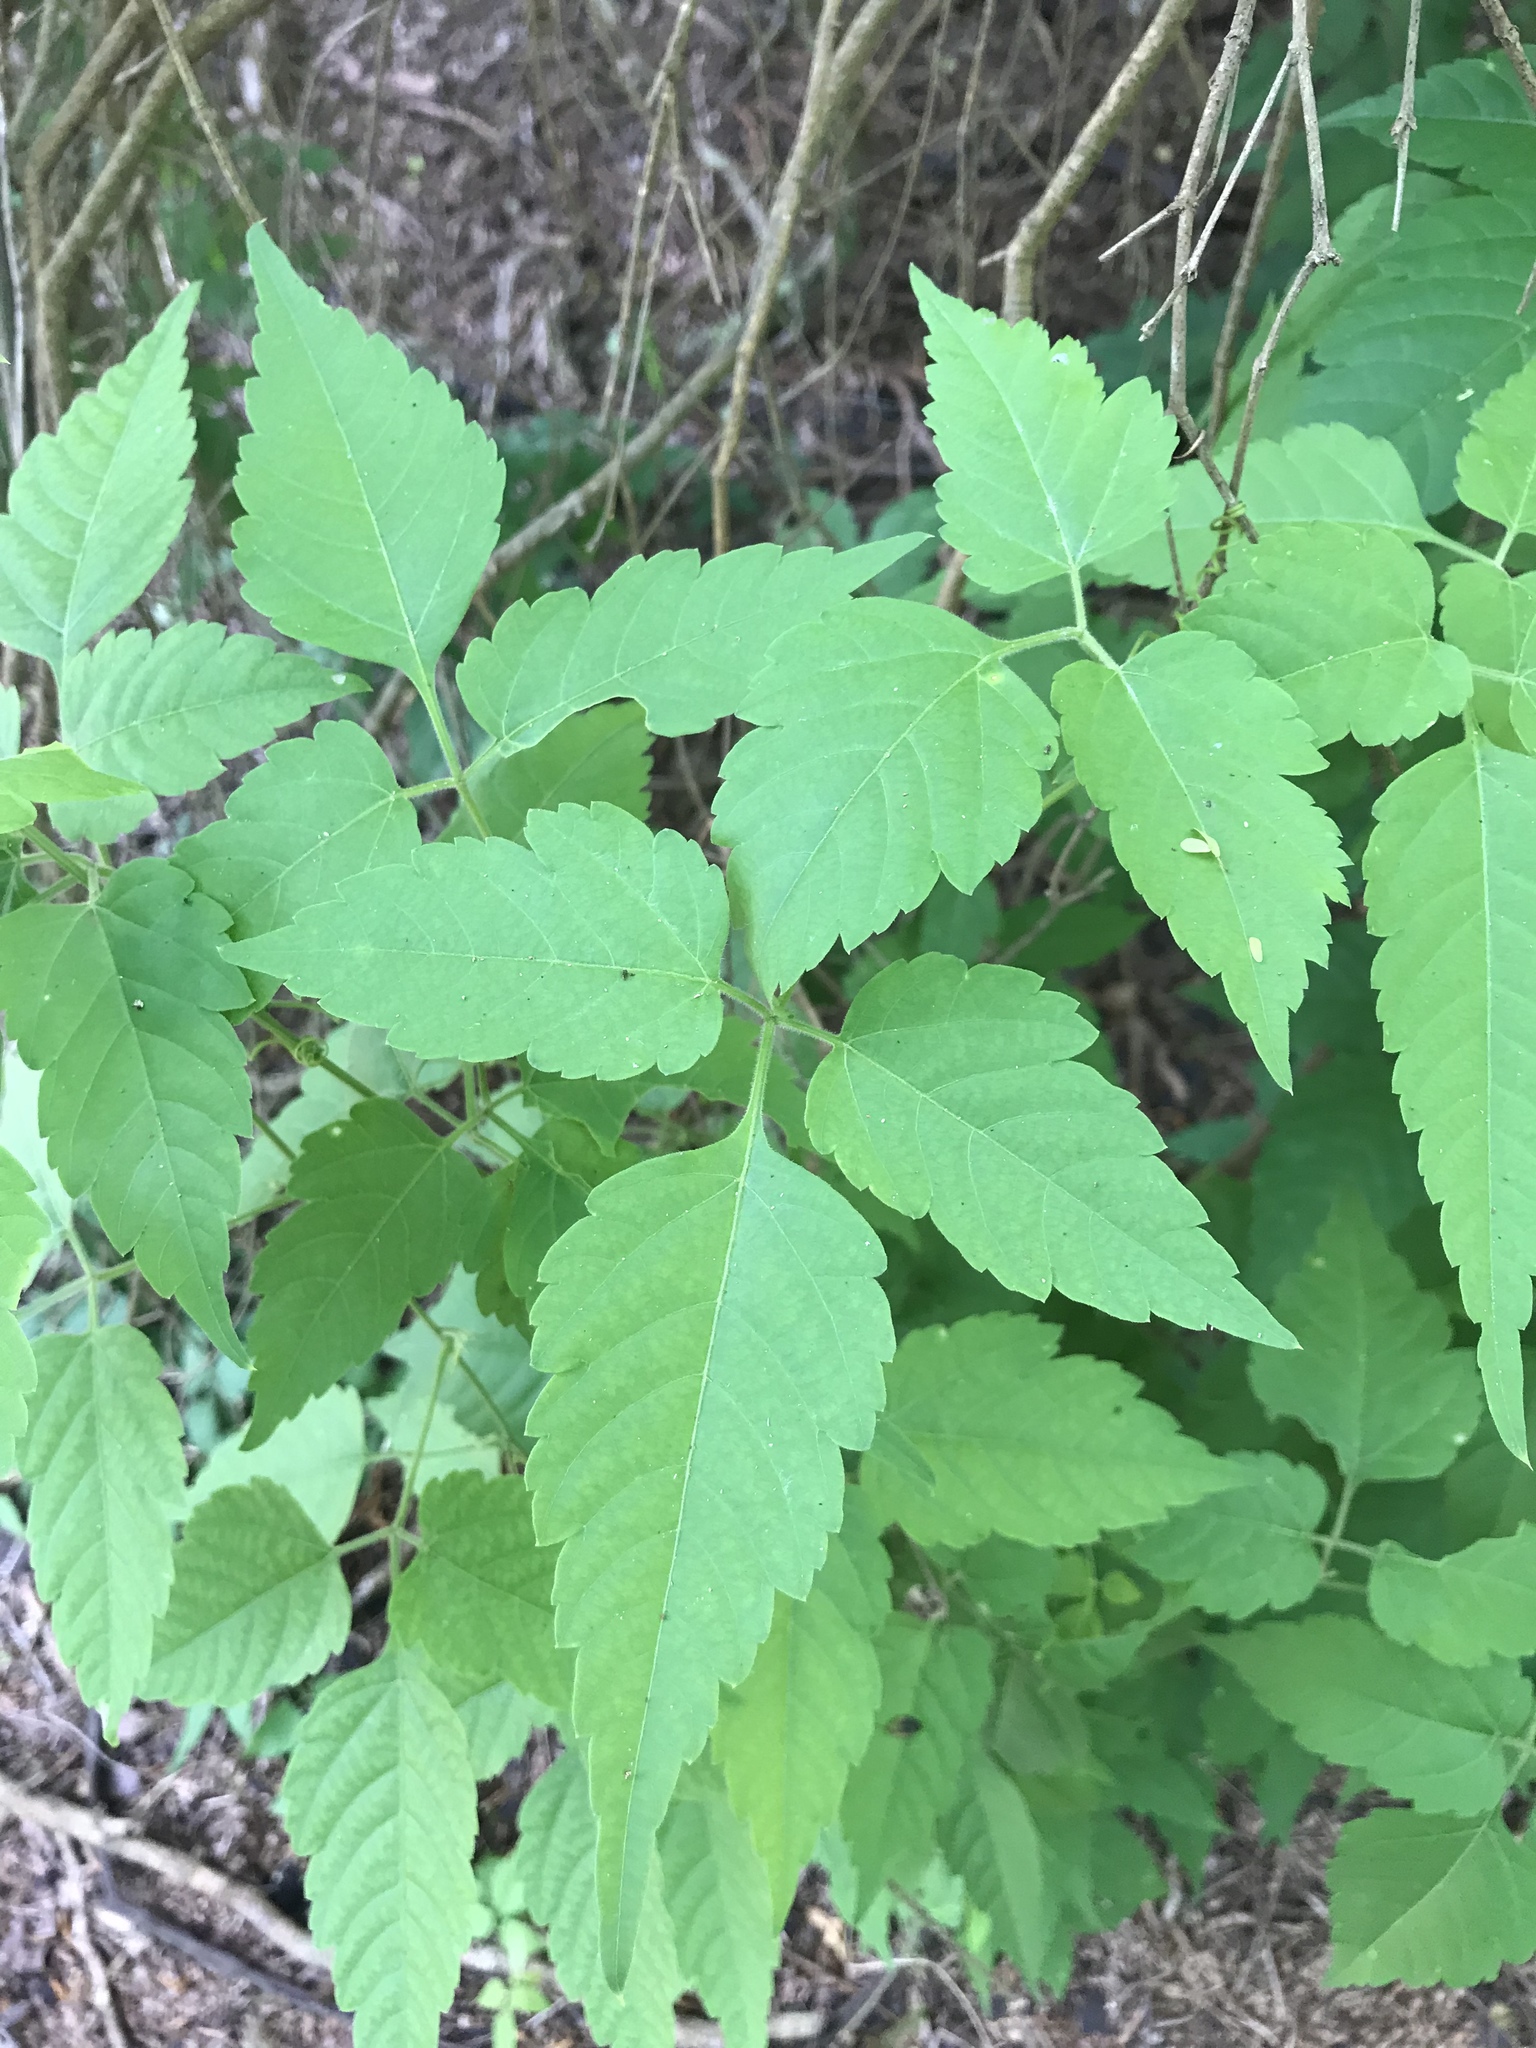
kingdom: Plantae
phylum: Tracheophyta
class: Magnoliopsida
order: Sapindales
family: Sapindaceae
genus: Urvillea
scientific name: Urvillea ulmacea
